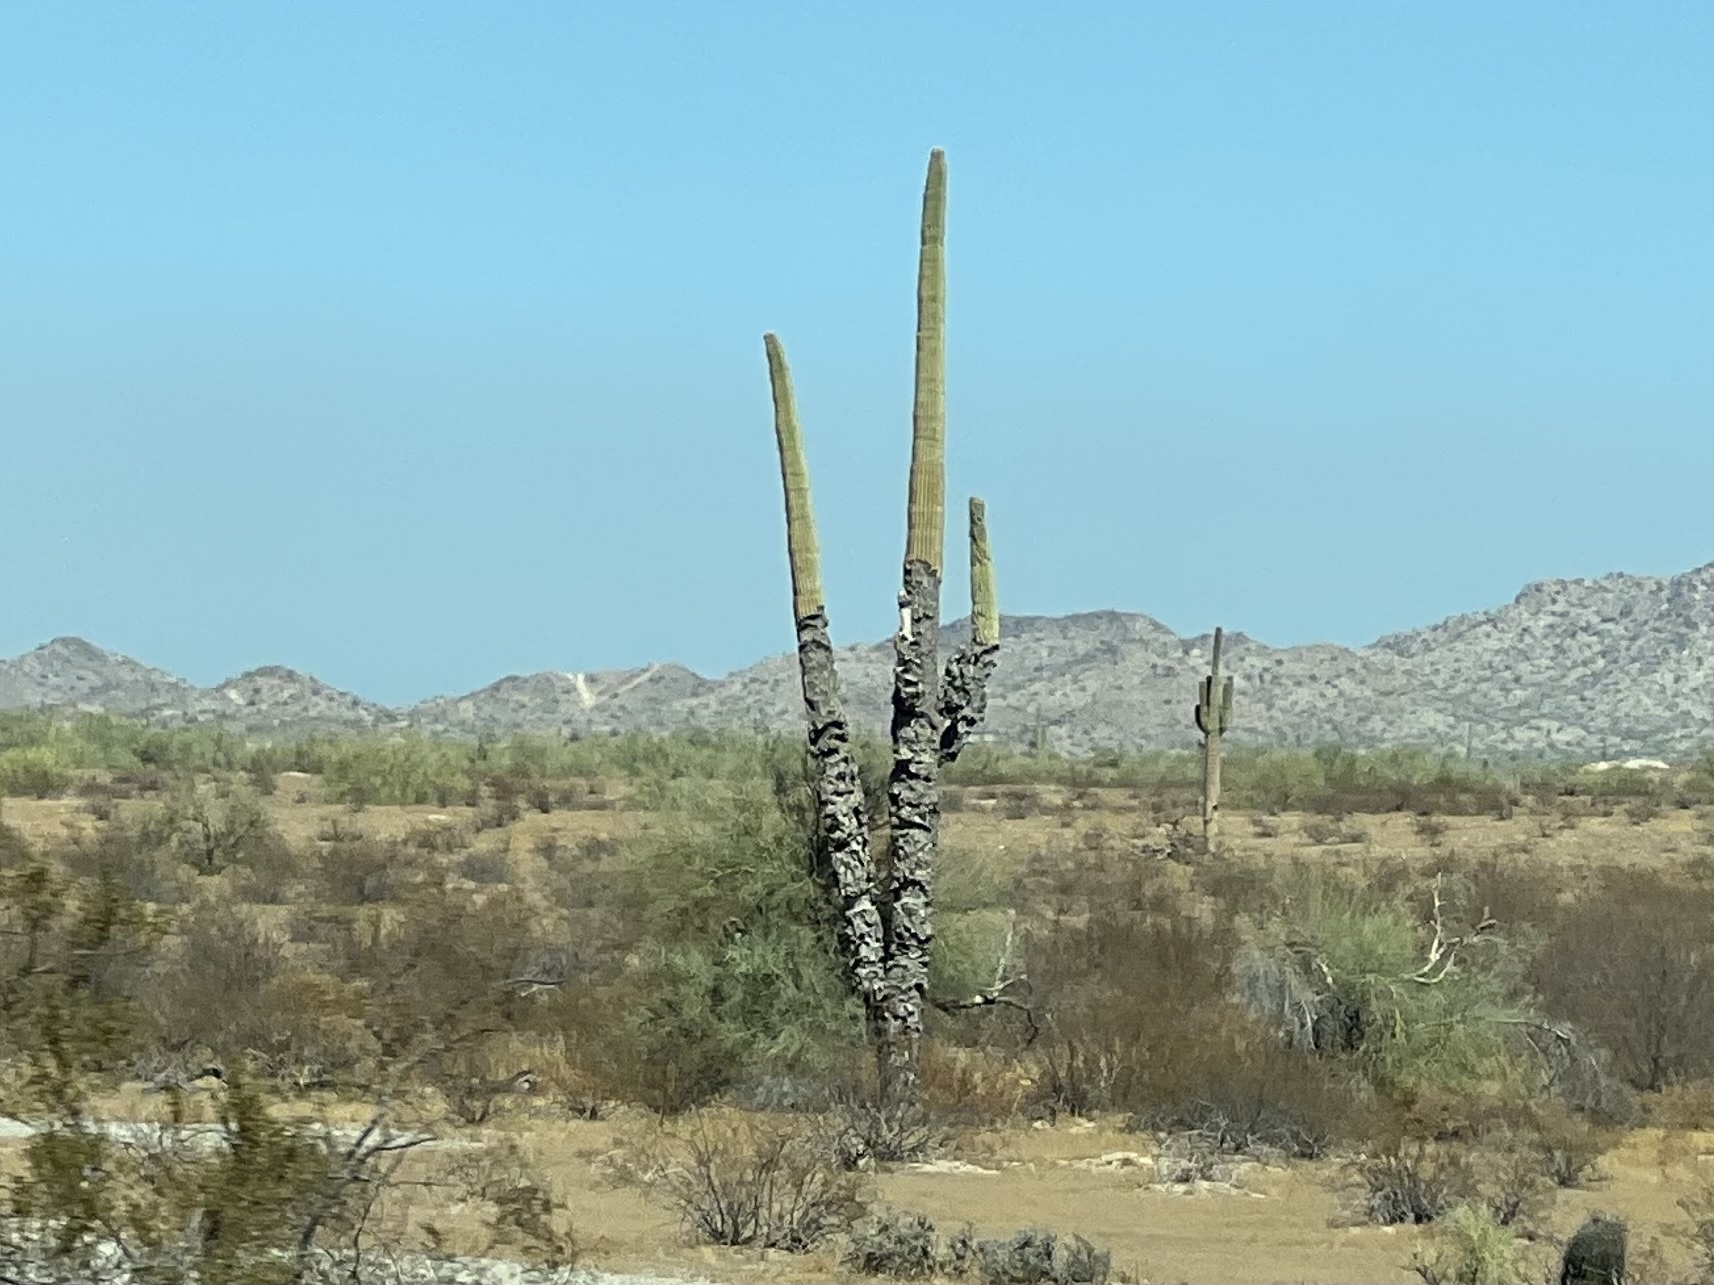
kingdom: Plantae
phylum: Tracheophyta
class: Magnoliopsida
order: Caryophyllales
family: Cactaceae
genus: Carnegiea
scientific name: Carnegiea gigantea
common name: Saguaro
